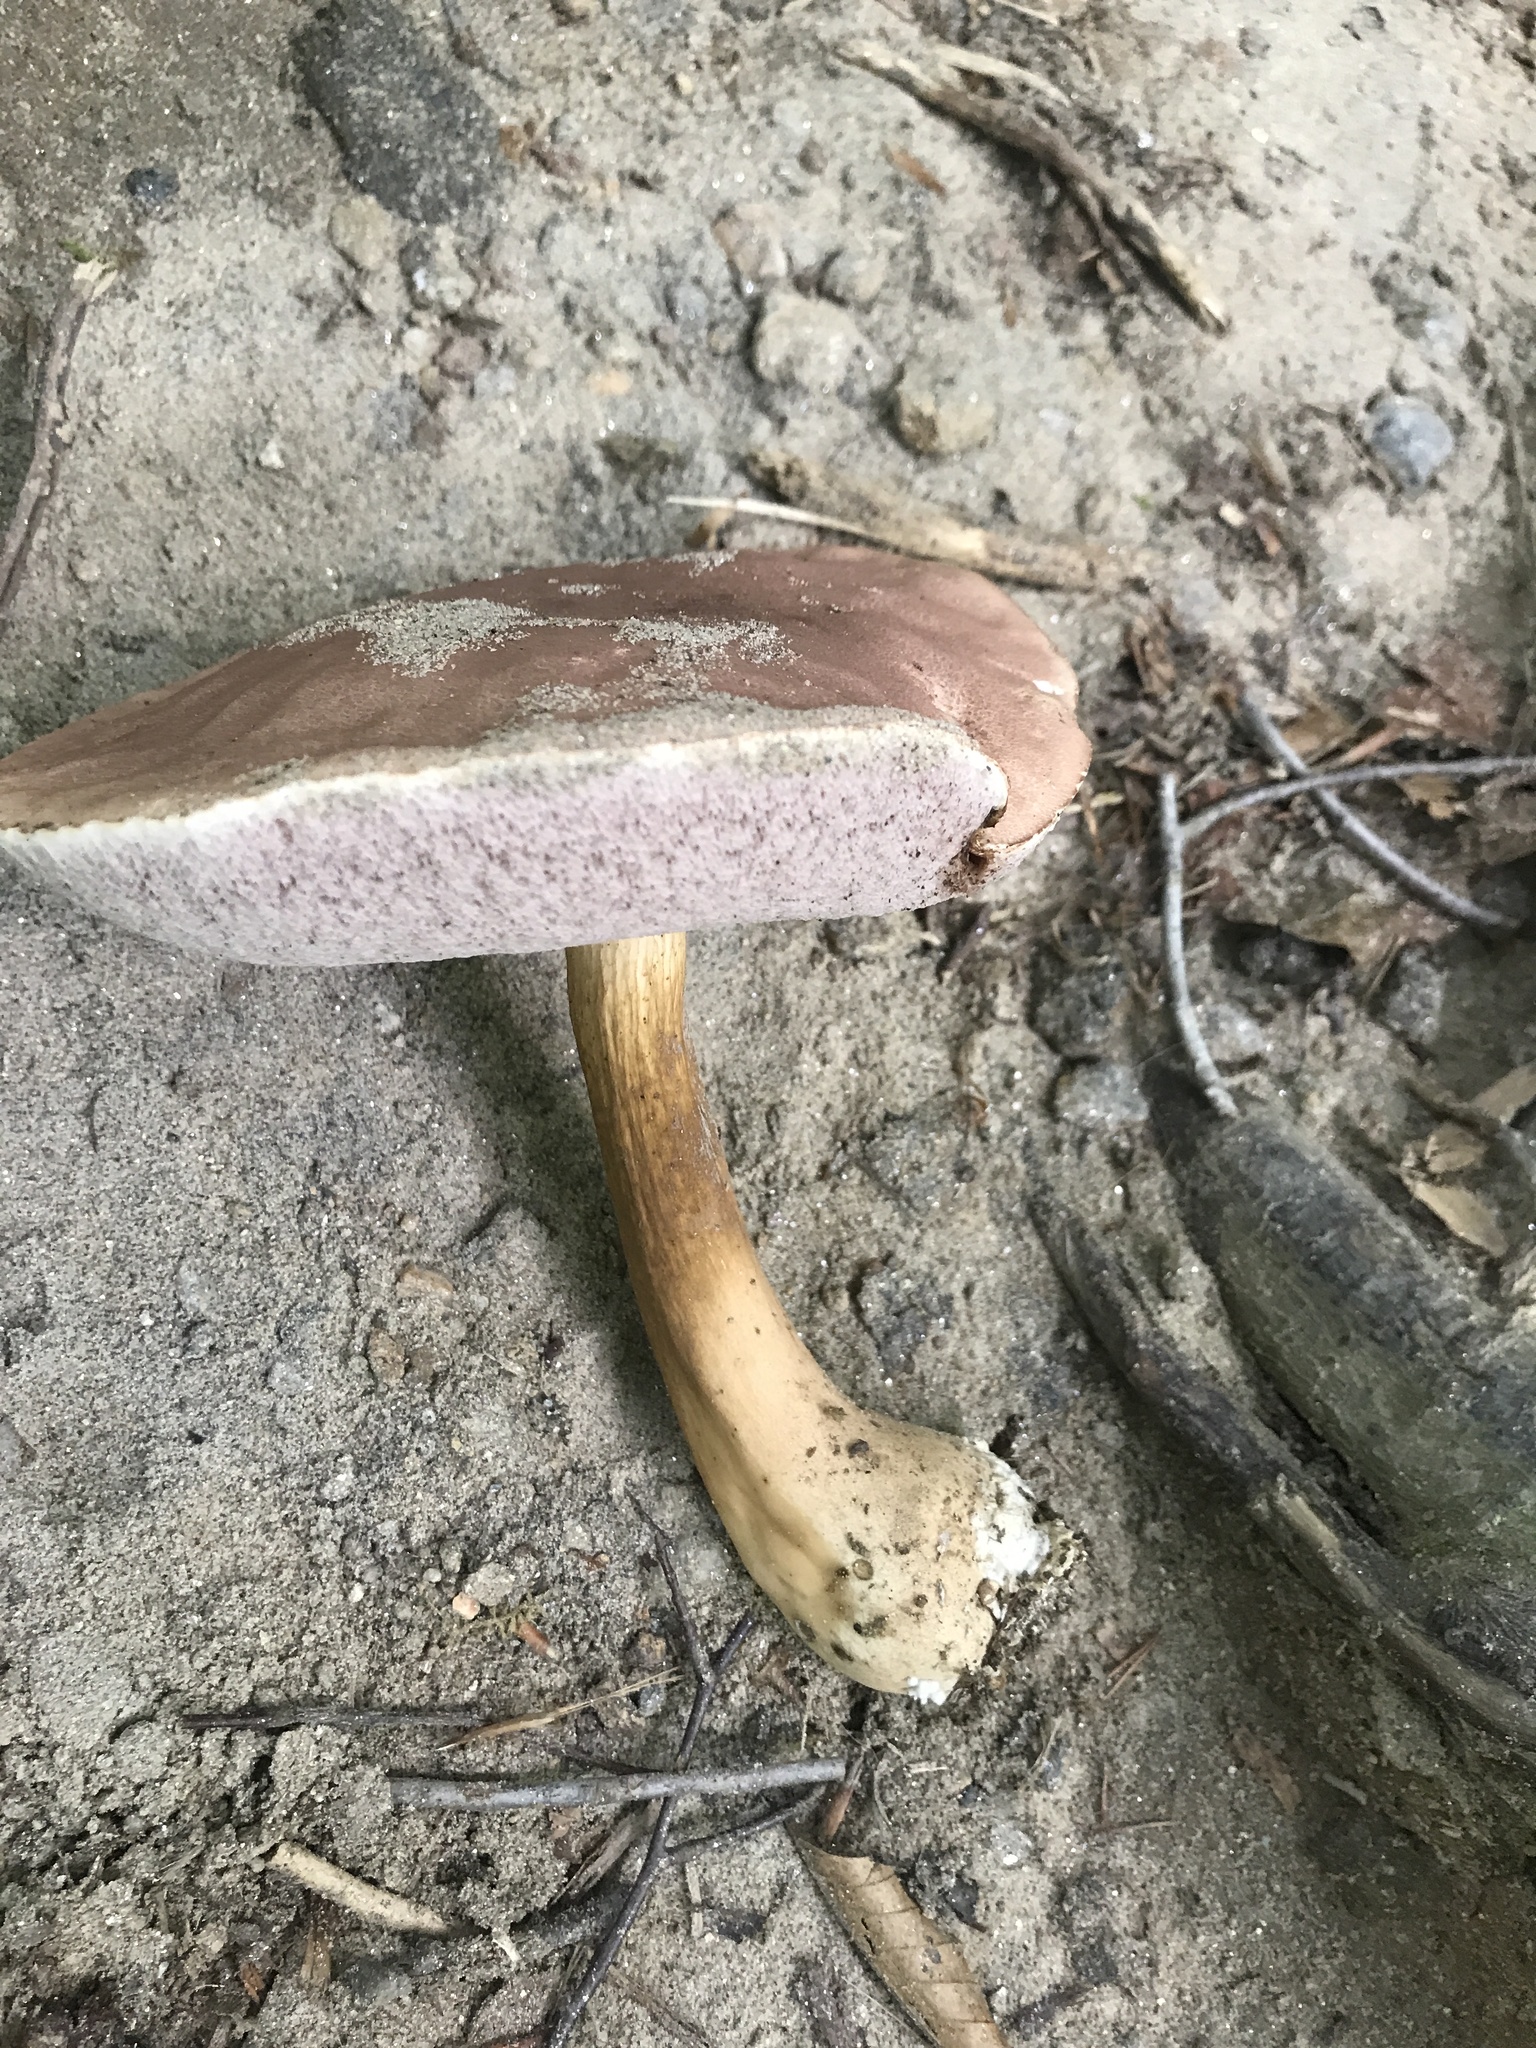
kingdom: Fungi
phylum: Basidiomycota
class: Agaricomycetes
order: Boletales
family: Boletaceae
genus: Tylopilus
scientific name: Tylopilus rubrobrunneus
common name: Reddish brown bitter bolete
